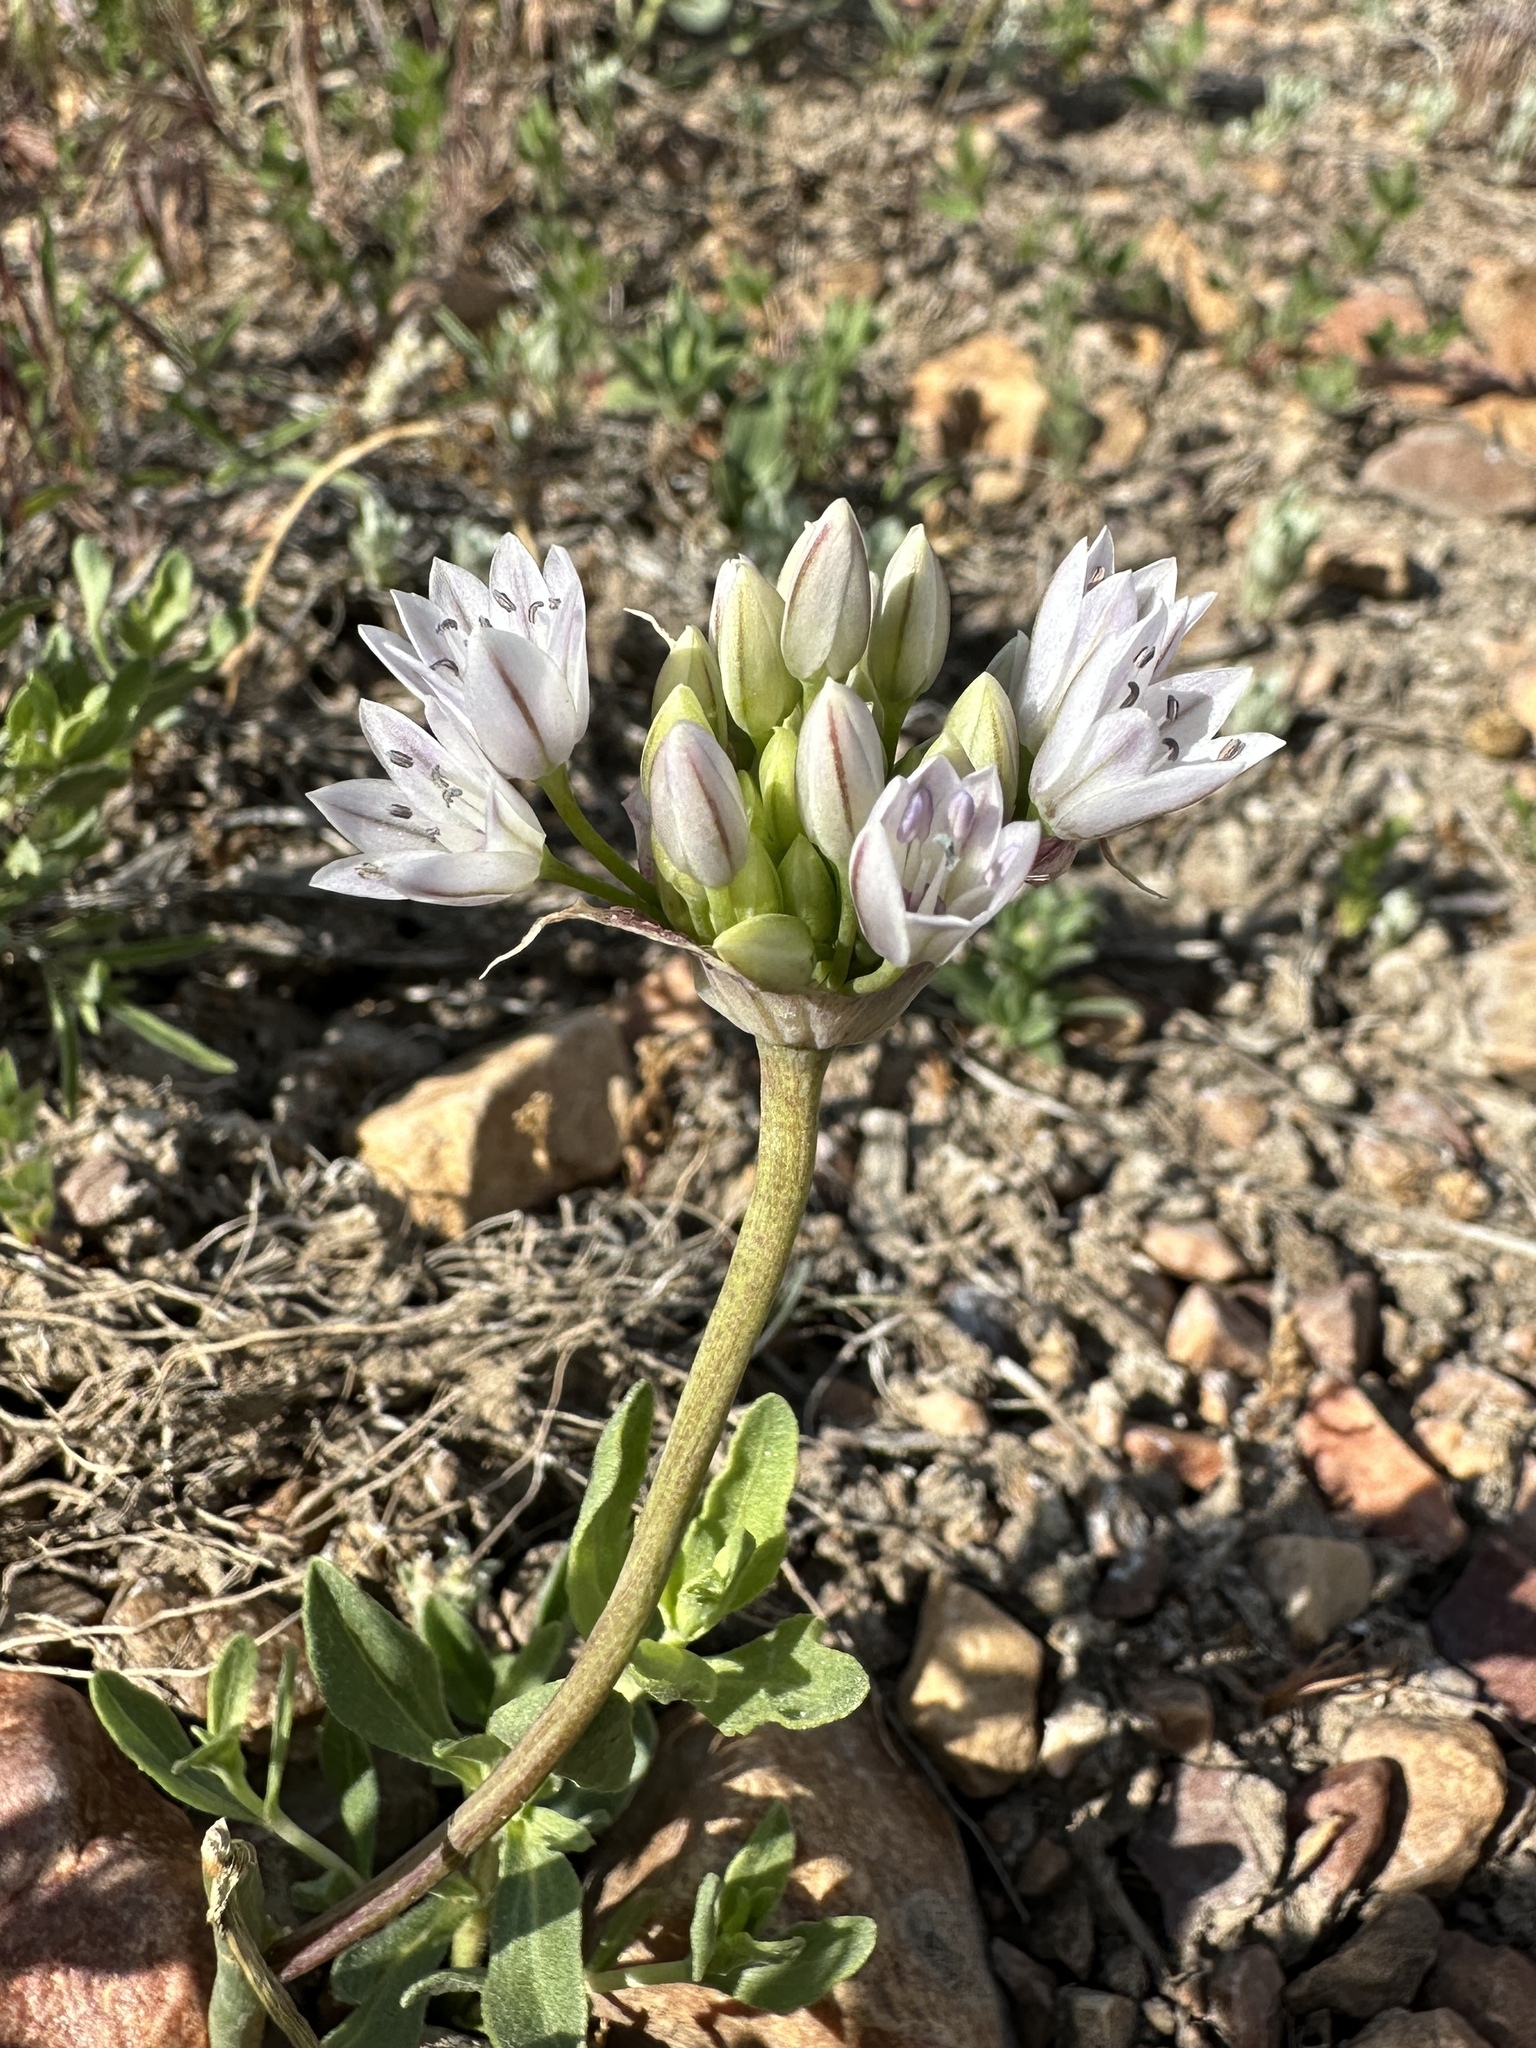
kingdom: Plantae
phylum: Tracheophyta
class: Liliopsida
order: Asparagales
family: Amaryllidaceae
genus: Allium
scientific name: Allium parryi
